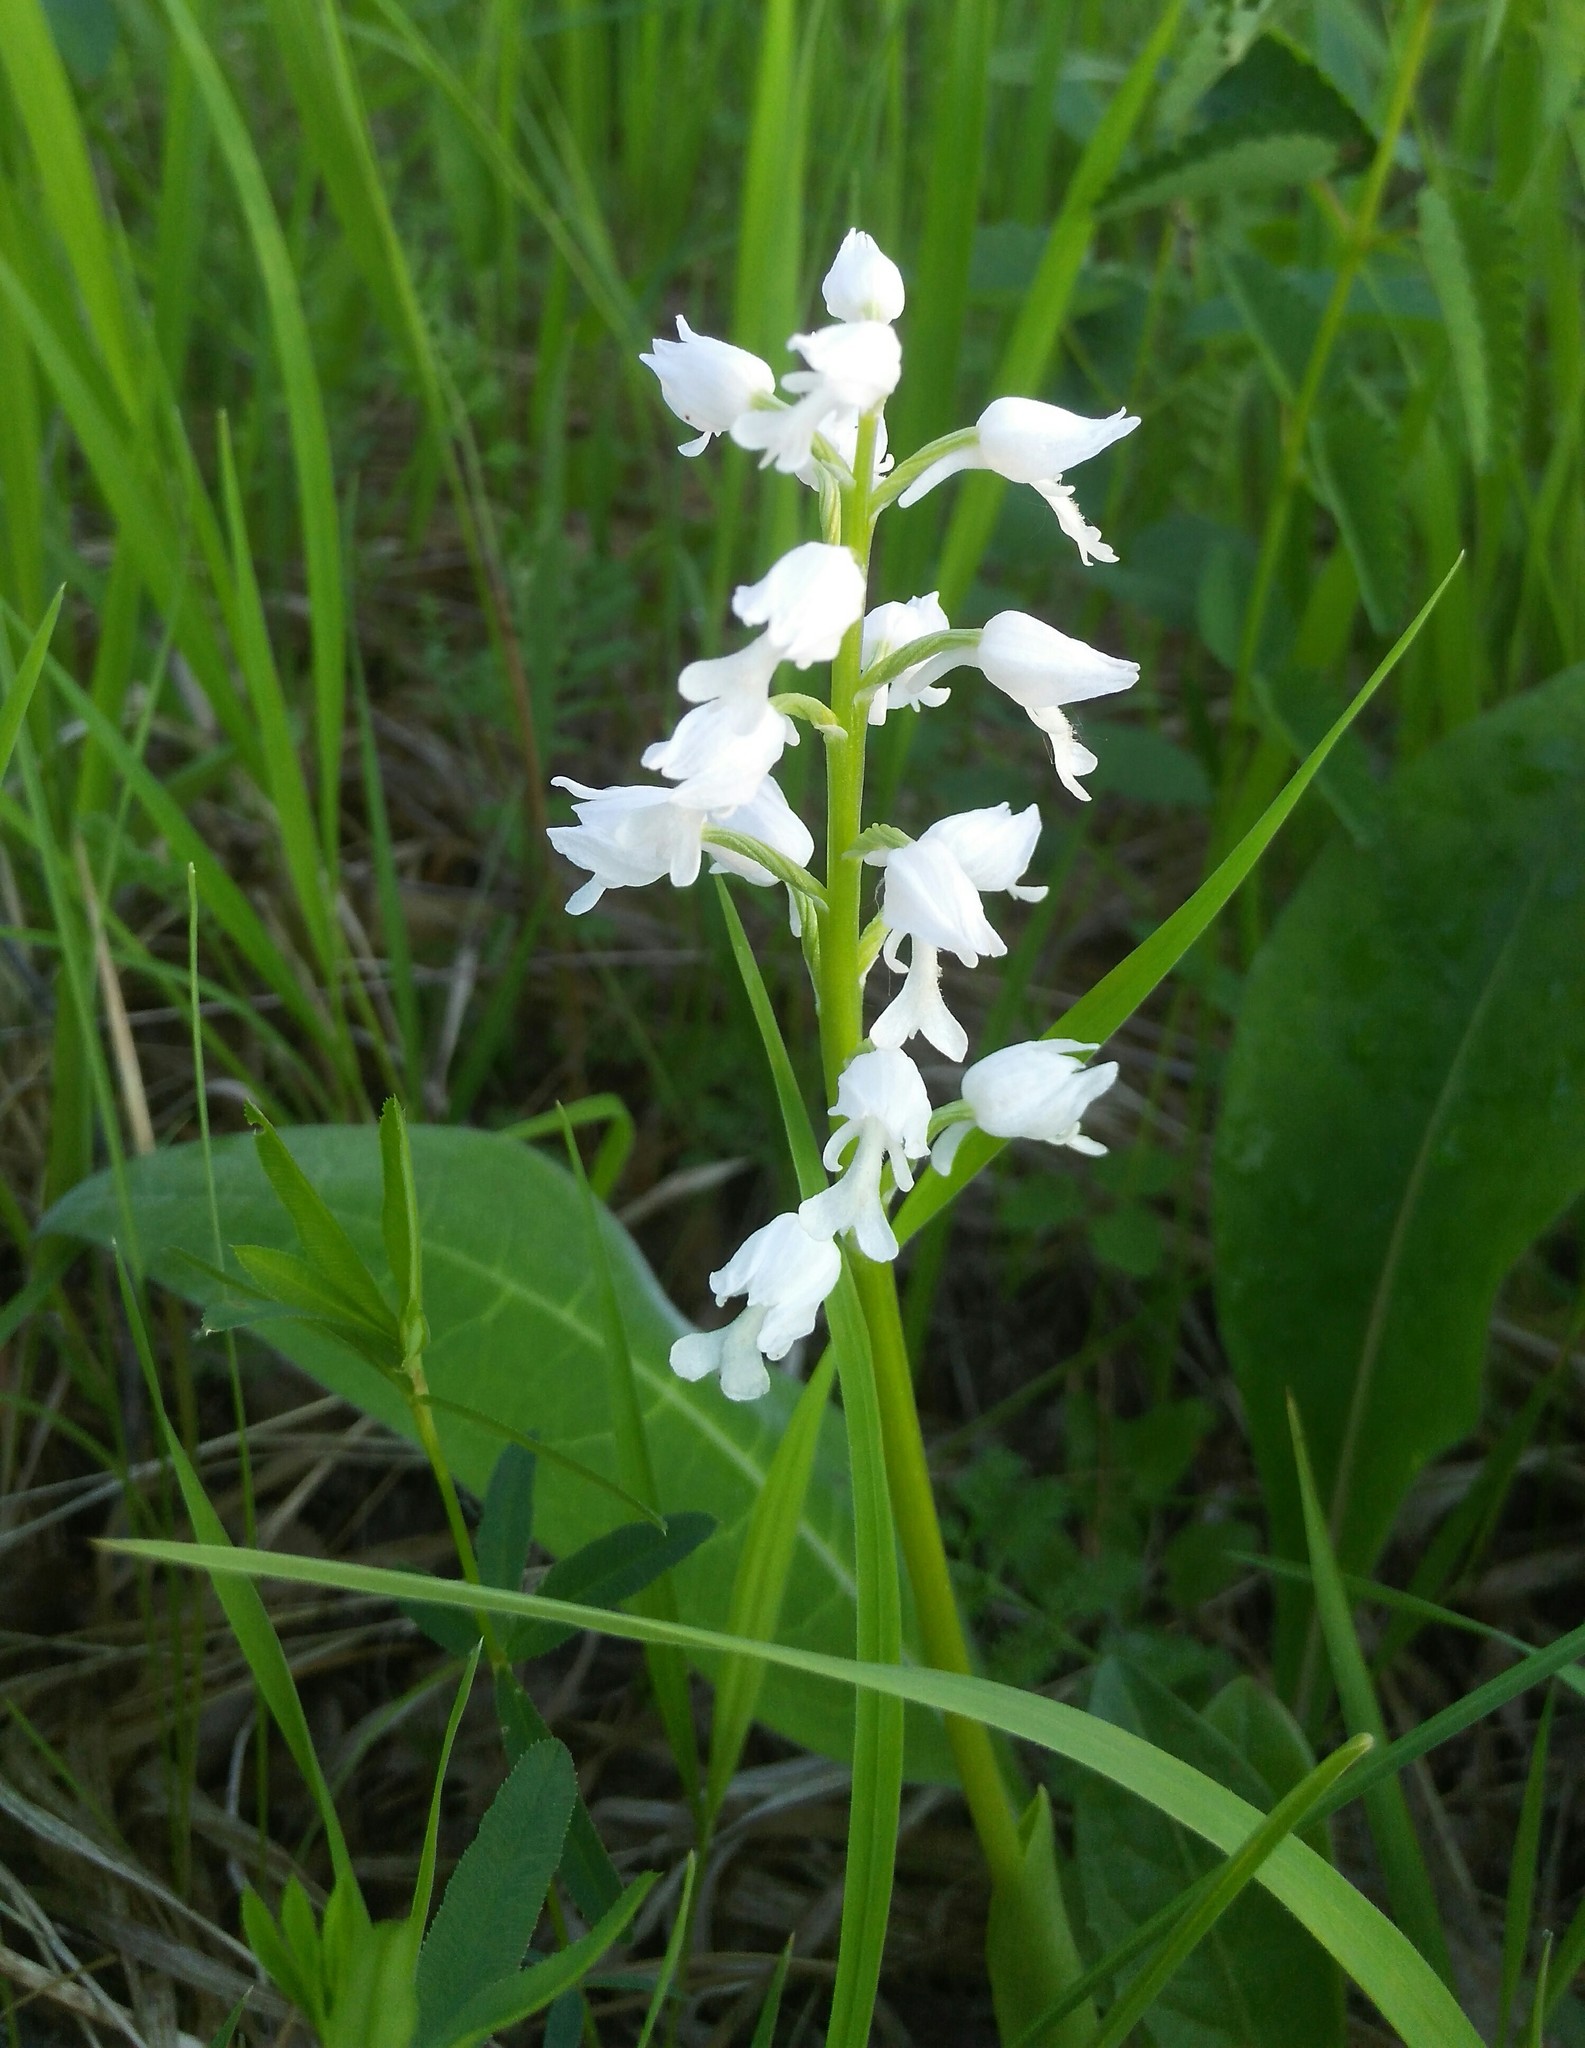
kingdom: Plantae
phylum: Tracheophyta
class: Liliopsida
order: Asparagales
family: Orchidaceae
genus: Orchis
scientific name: Orchis militaris
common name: Military orchid
